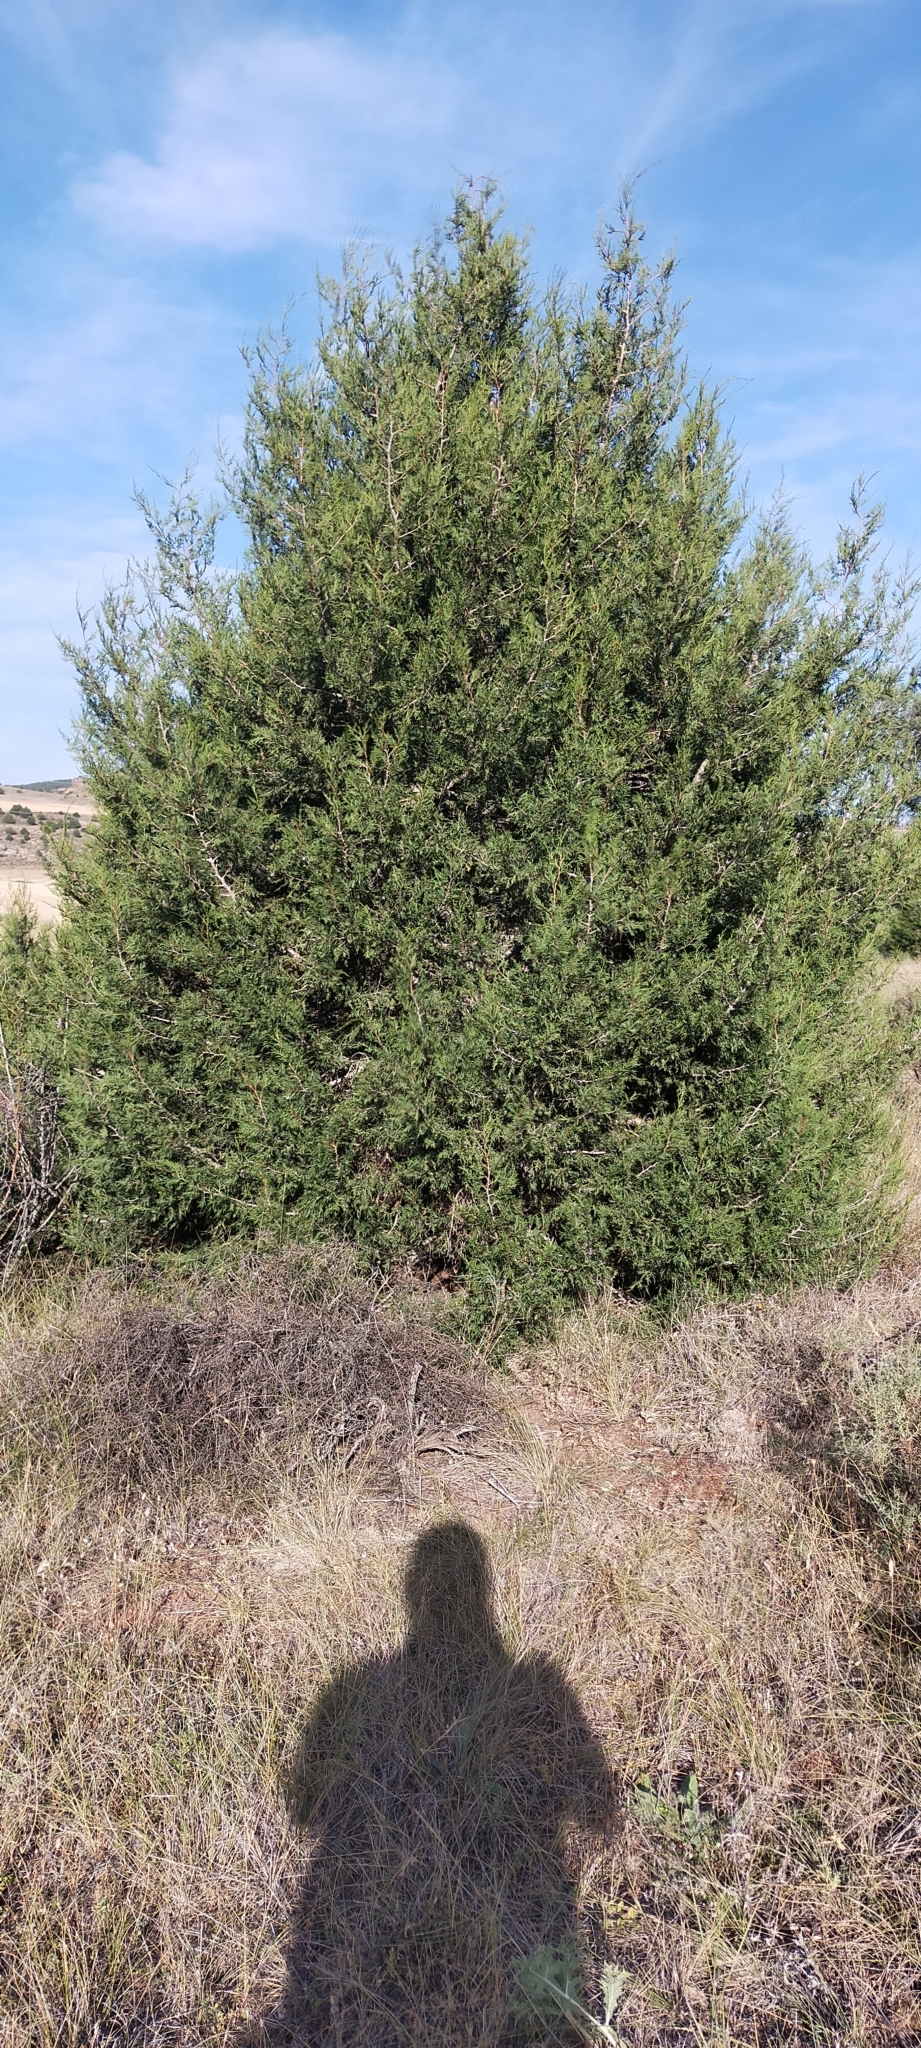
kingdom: Plantae
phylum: Tracheophyta
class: Pinopsida
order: Pinales
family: Cupressaceae
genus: Juniperus
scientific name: Juniperus thurifera
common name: Incense juniper
